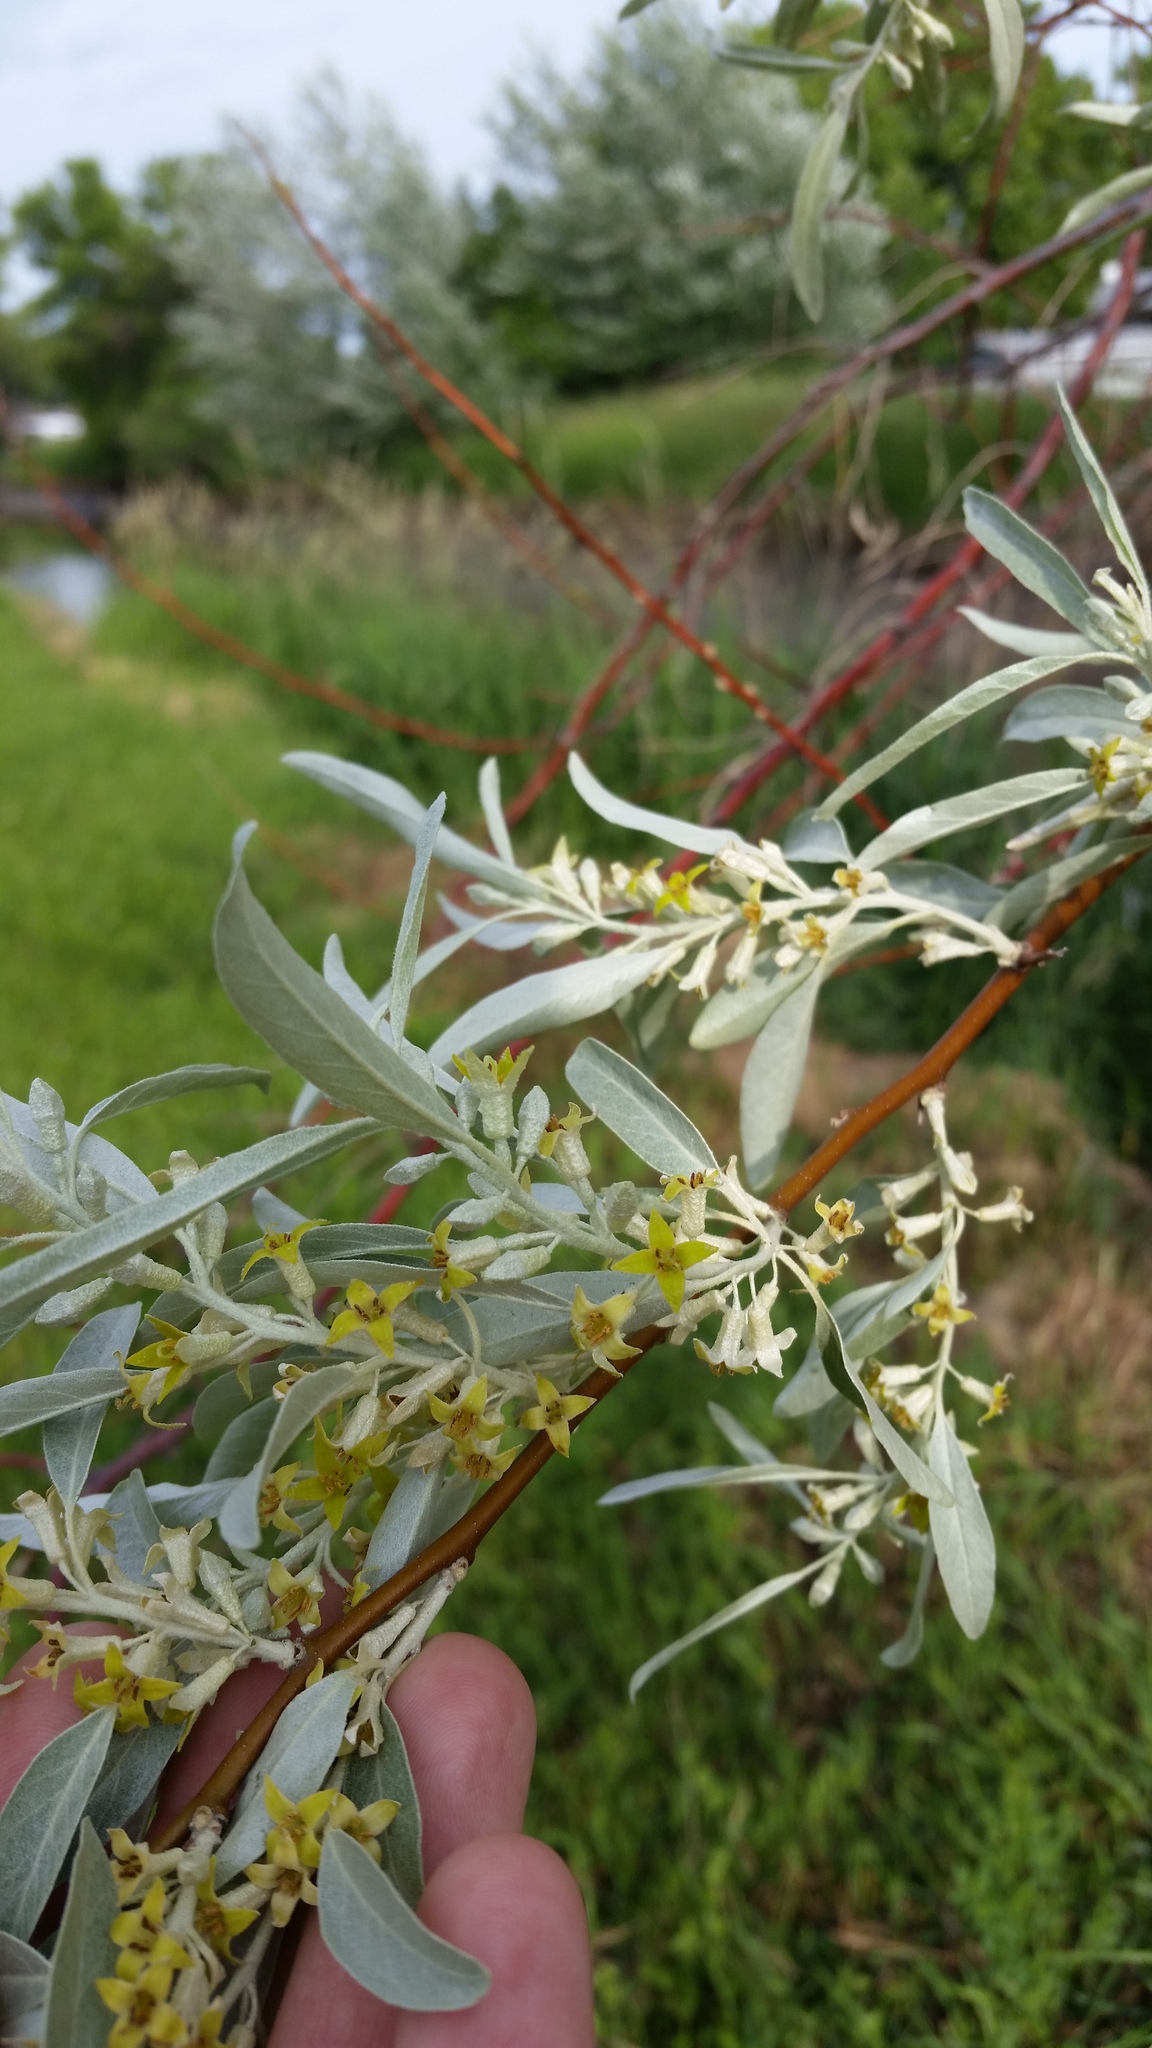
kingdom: Plantae
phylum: Tracheophyta
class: Magnoliopsida
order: Rosales
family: Elaeagnaceae
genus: Elaeagnus
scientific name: Elaeagnus angustifolia
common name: Russian olive
